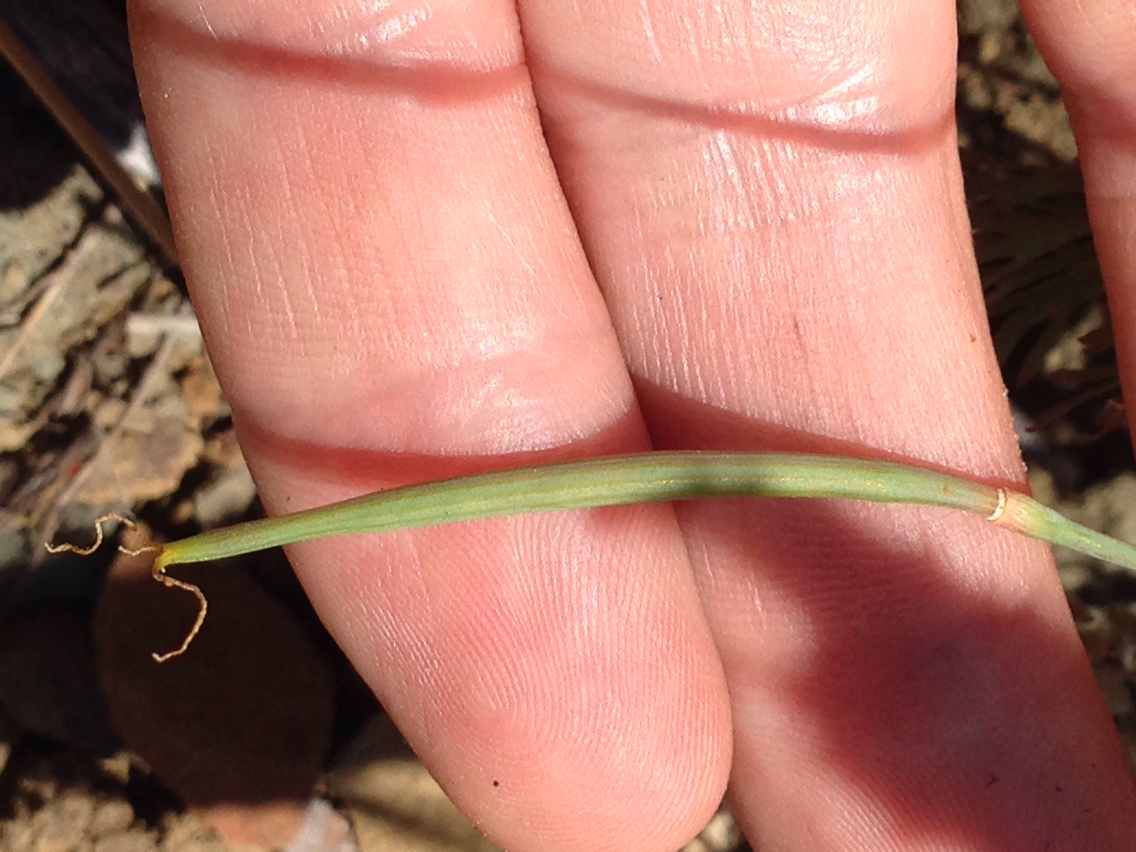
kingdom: Plantae
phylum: Tracheophyta
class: Magnoliopsida
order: Ranunculales
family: Papaveraceae
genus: Eschscholzia
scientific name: Eschscholzia caespitosa
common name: Tufted california-poppy
